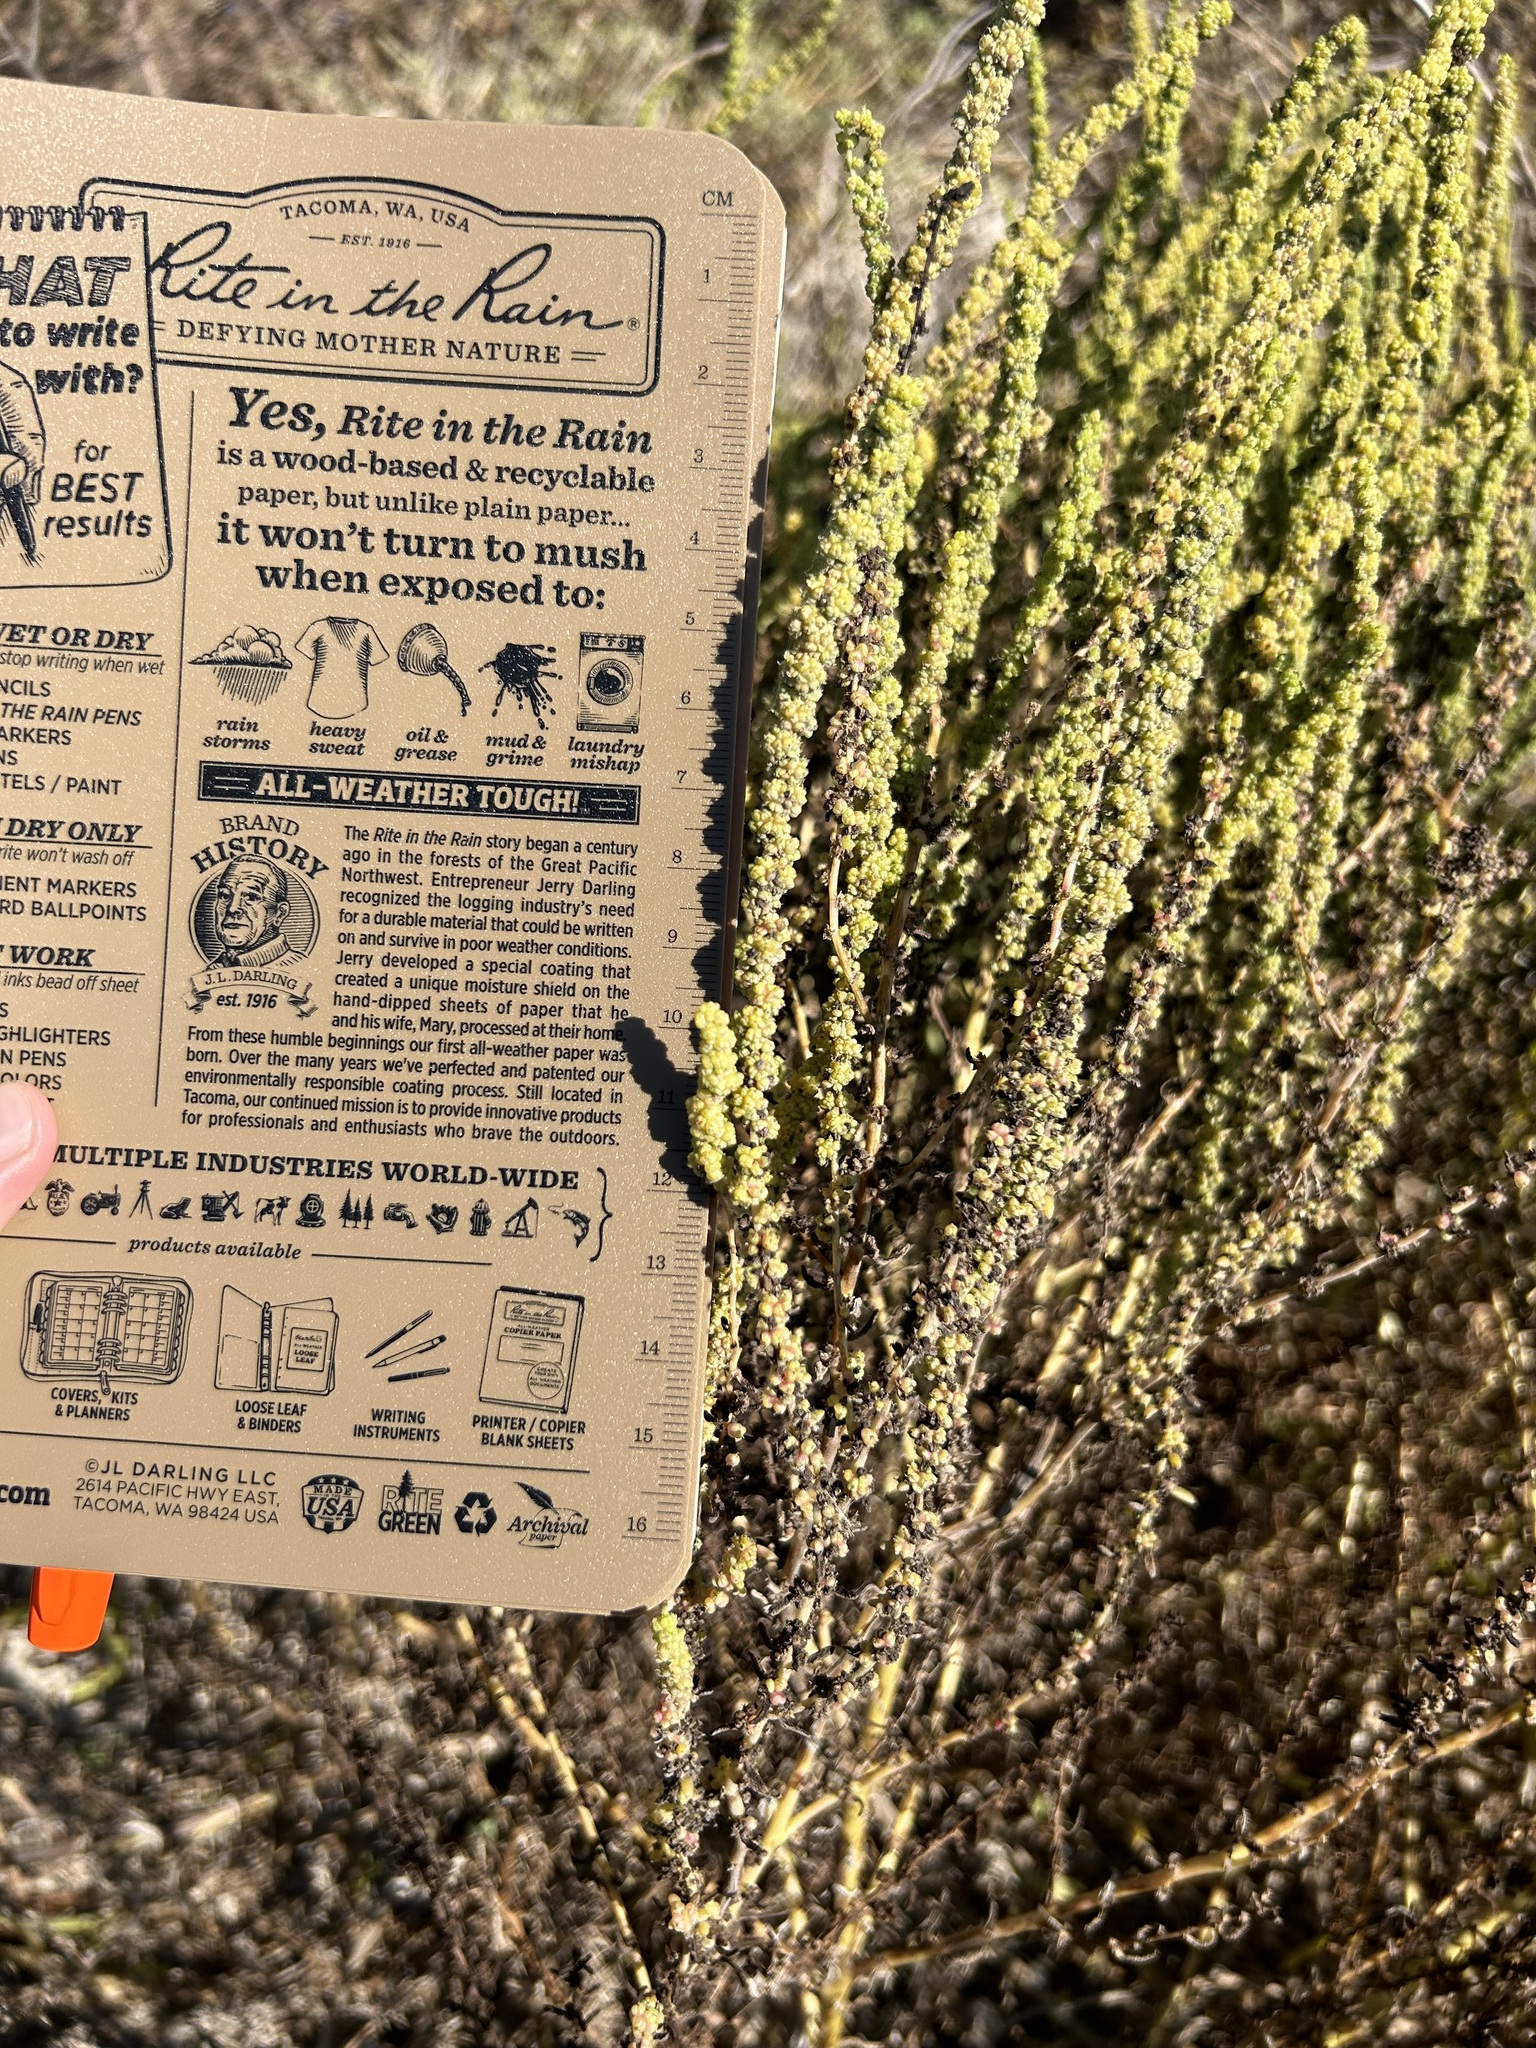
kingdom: Plantae
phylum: Tracheophyta
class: Magnoliopsida
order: Caryophyllales
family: Amaranthaceae
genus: Suaeda
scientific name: Suaeda linearis
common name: Annual seepweed
